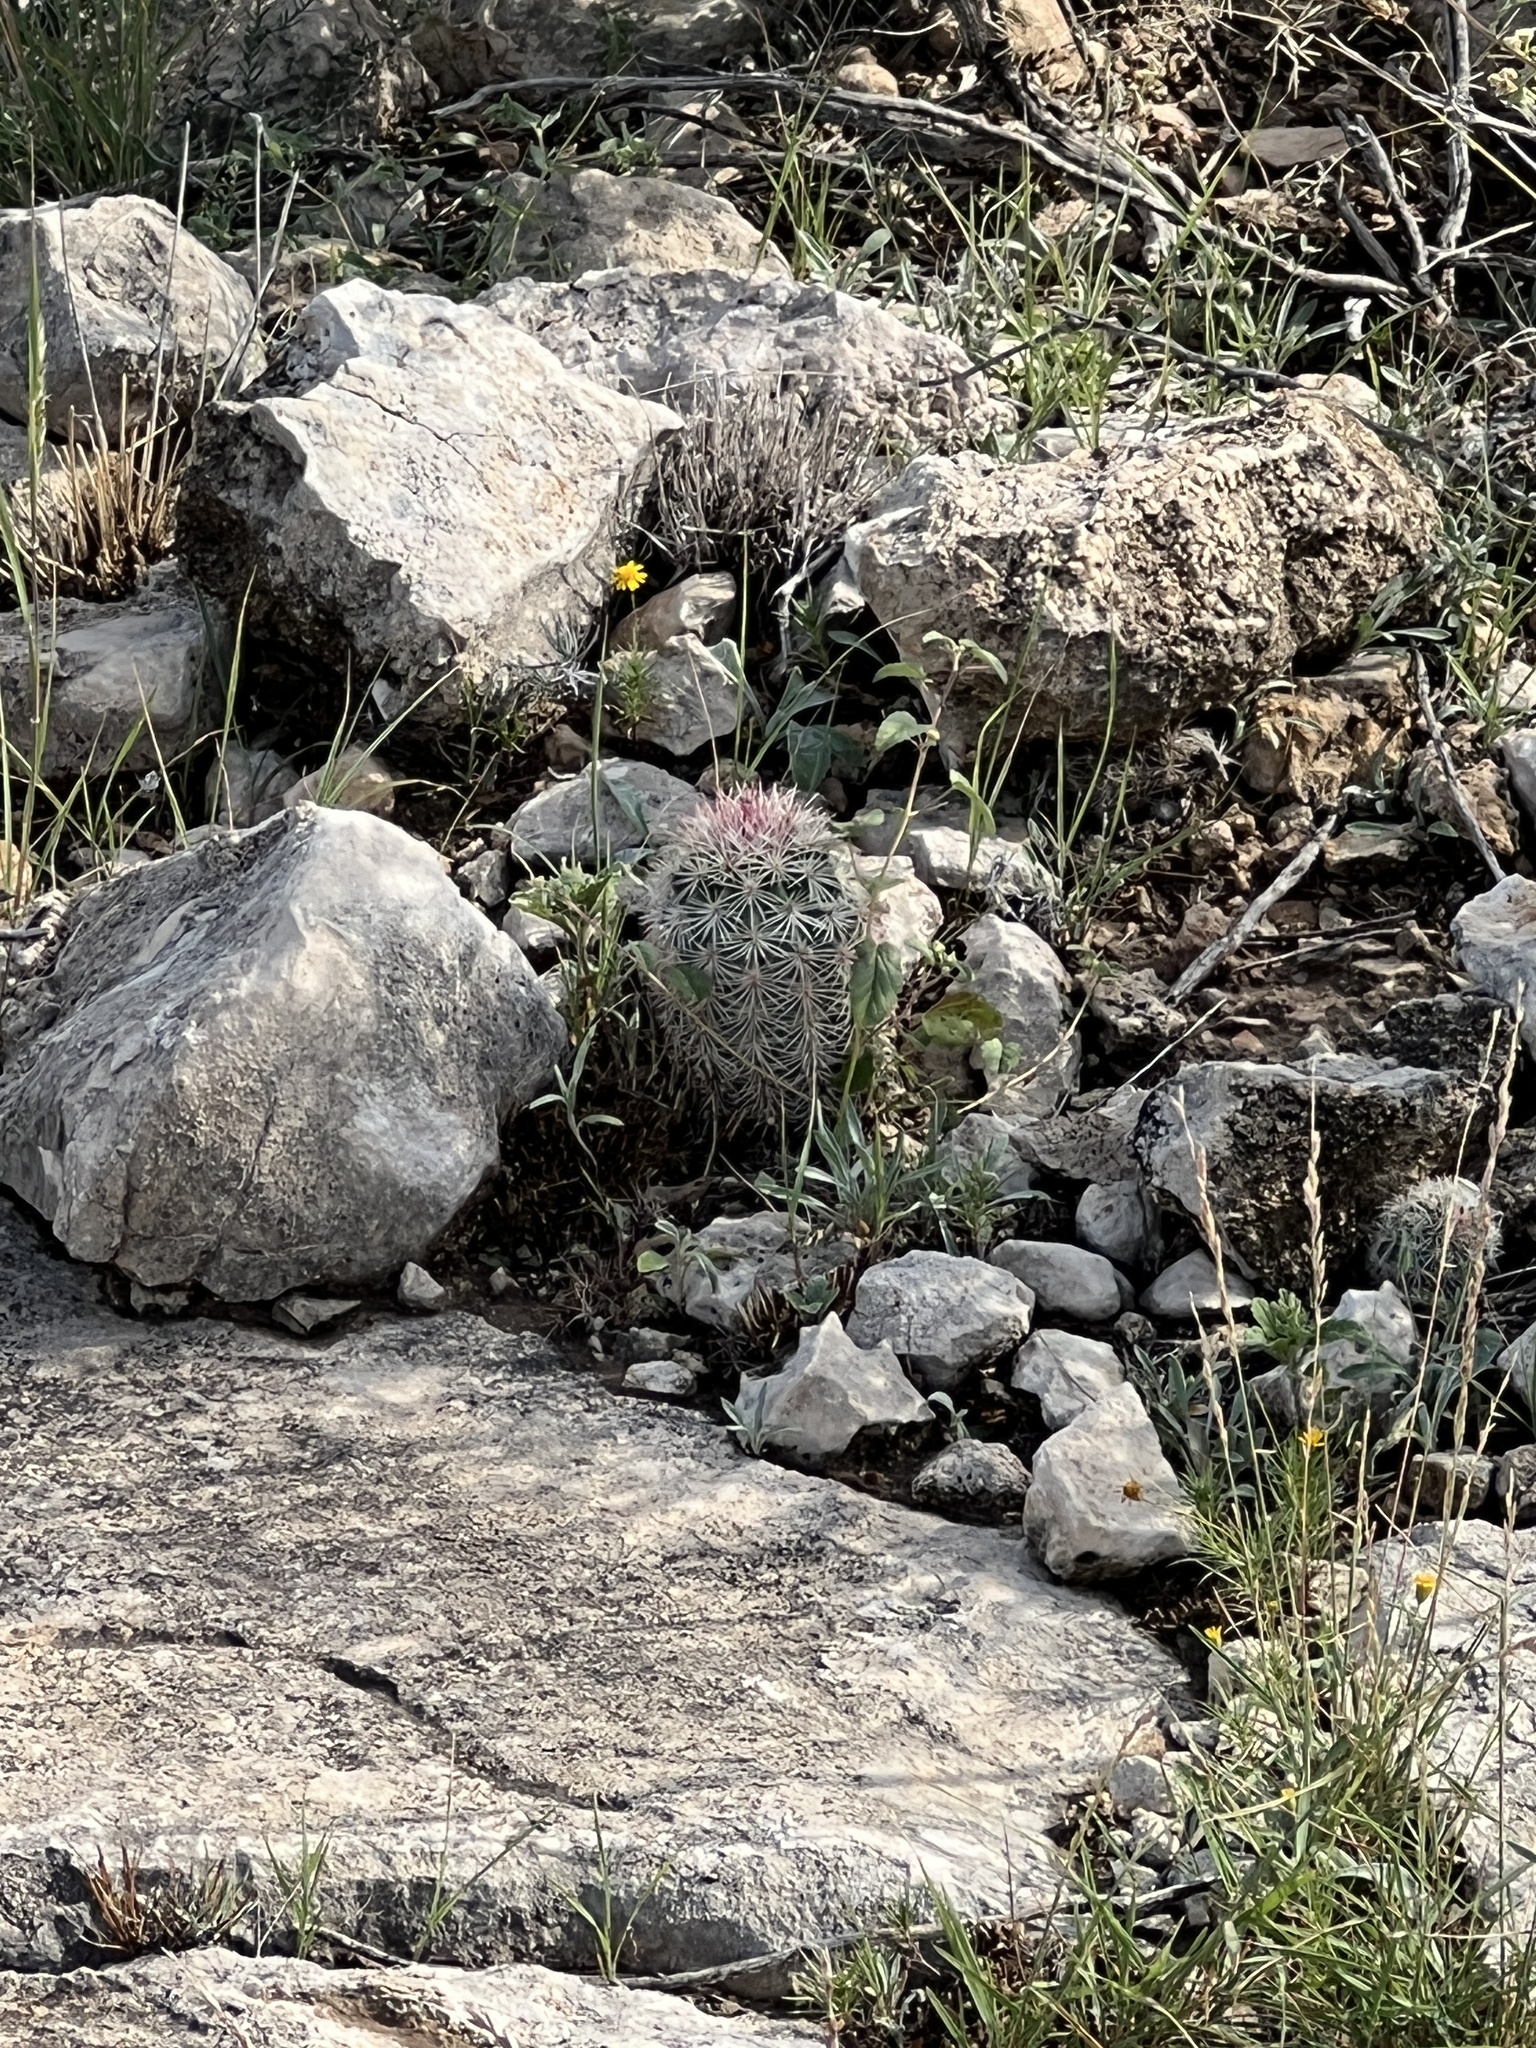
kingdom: Plantae
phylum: Tracheophyta
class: Magnoliopsida
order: Caryophyllales
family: Cactaceae
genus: Echinocereus
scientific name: Echinocereus dasyacanthus
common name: Spiny hedgehog cactus
